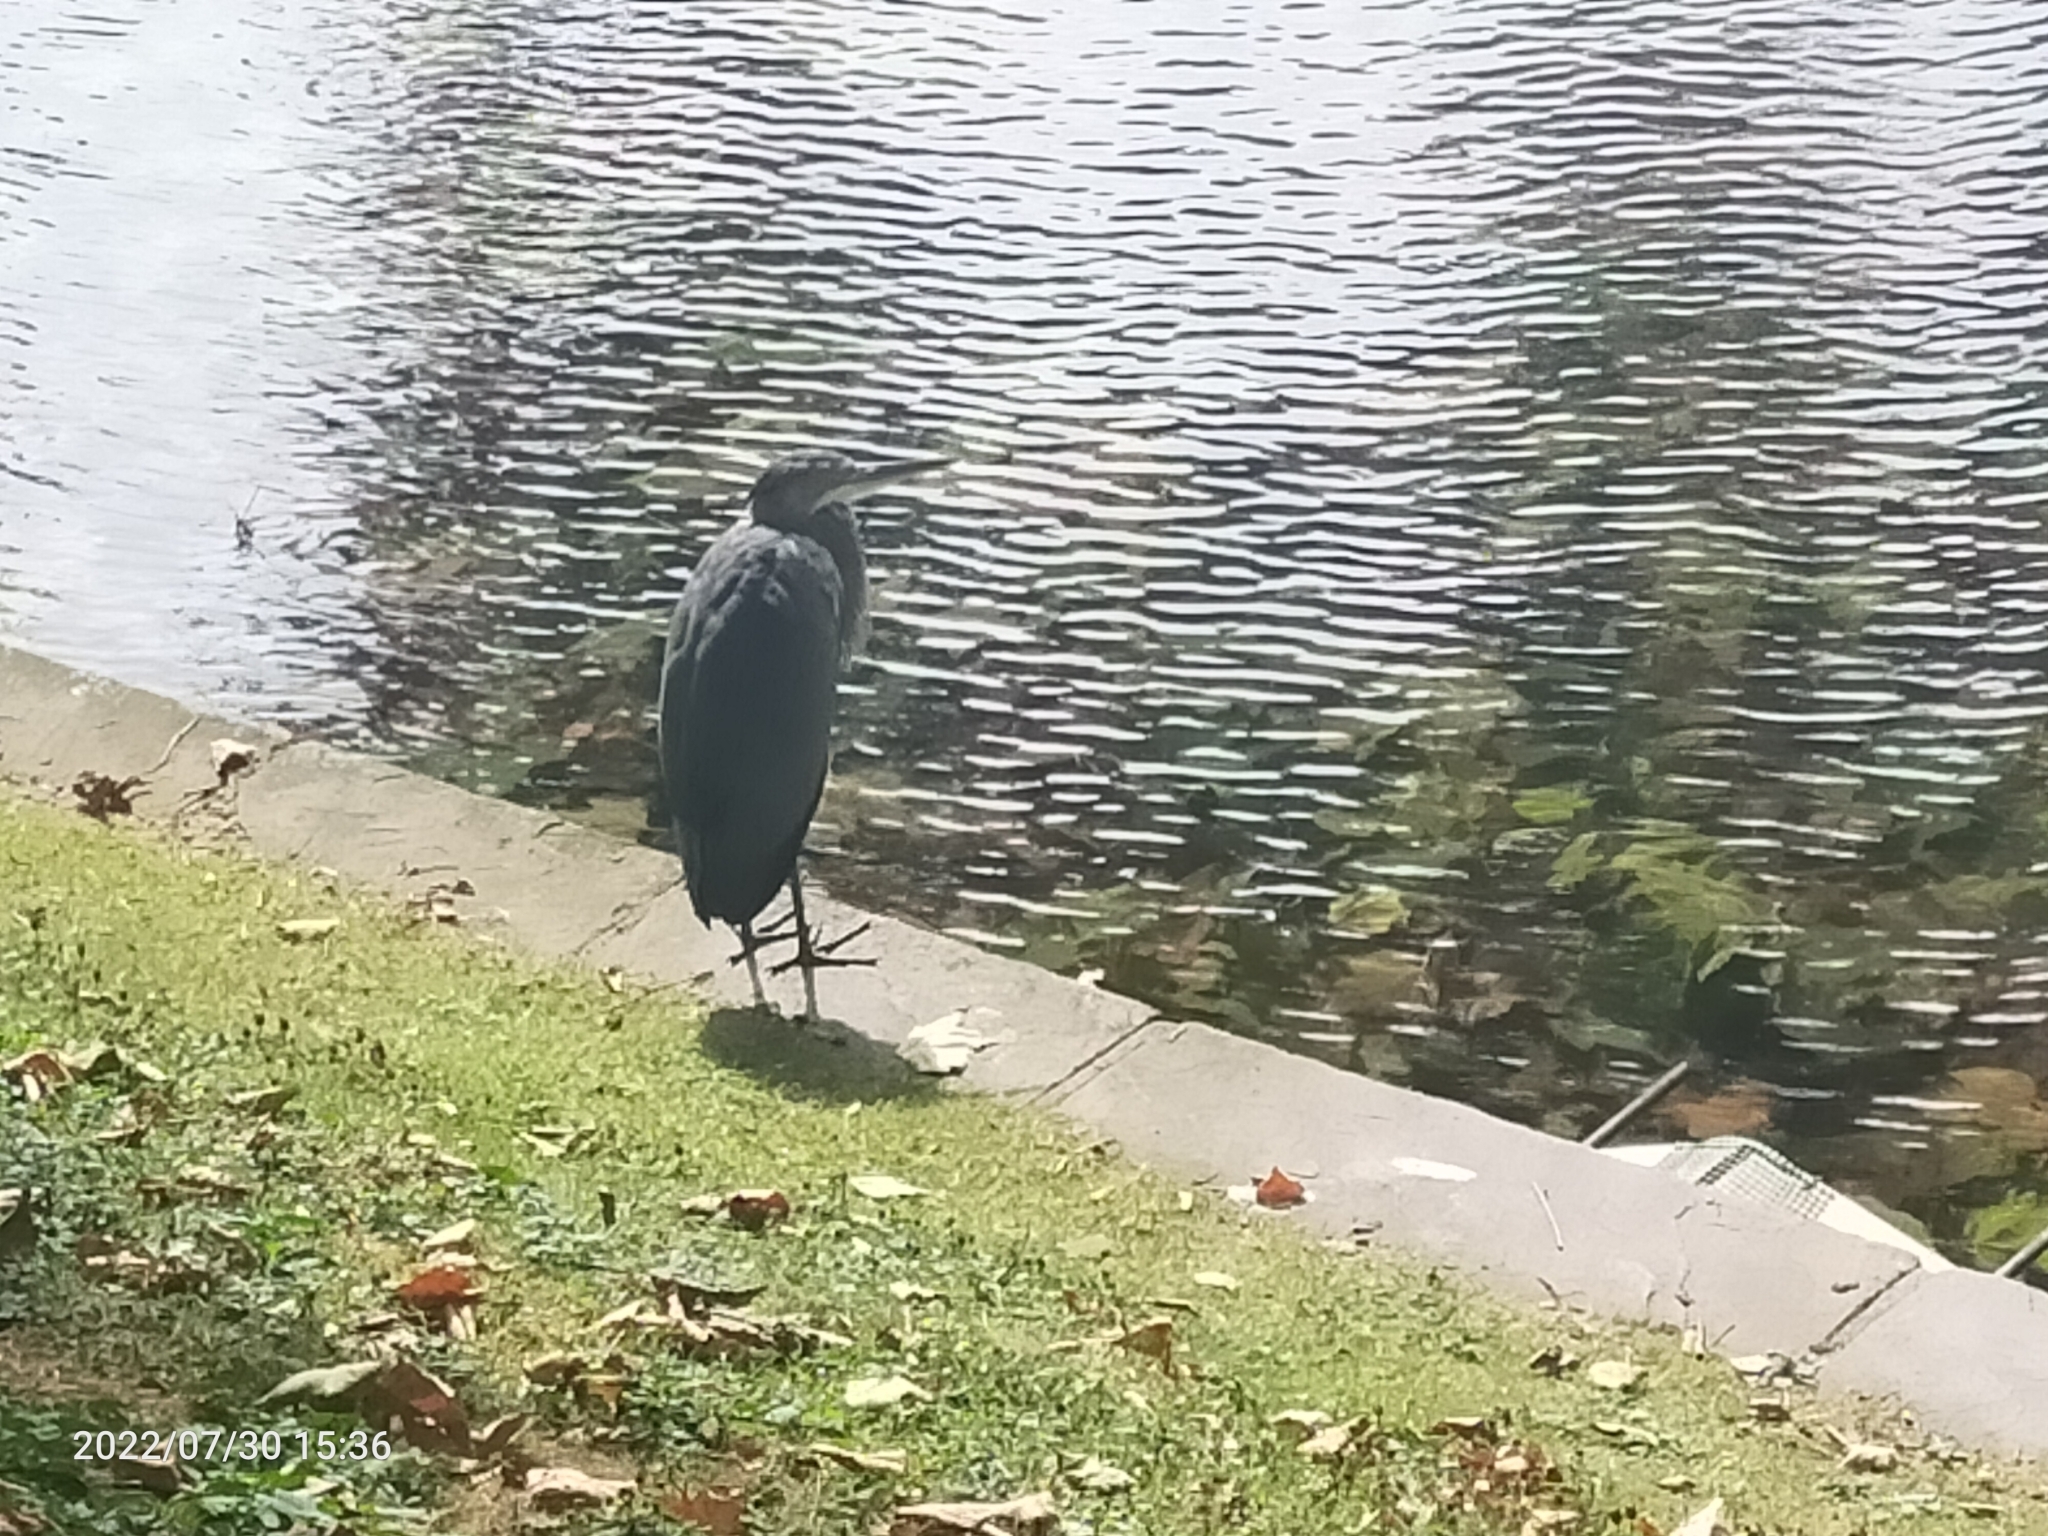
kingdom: Animalia
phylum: Chordata
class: Aves
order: Pelecaniformes
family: Ardeidae
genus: Ardea
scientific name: Ardea cinerea
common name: Grey heron
